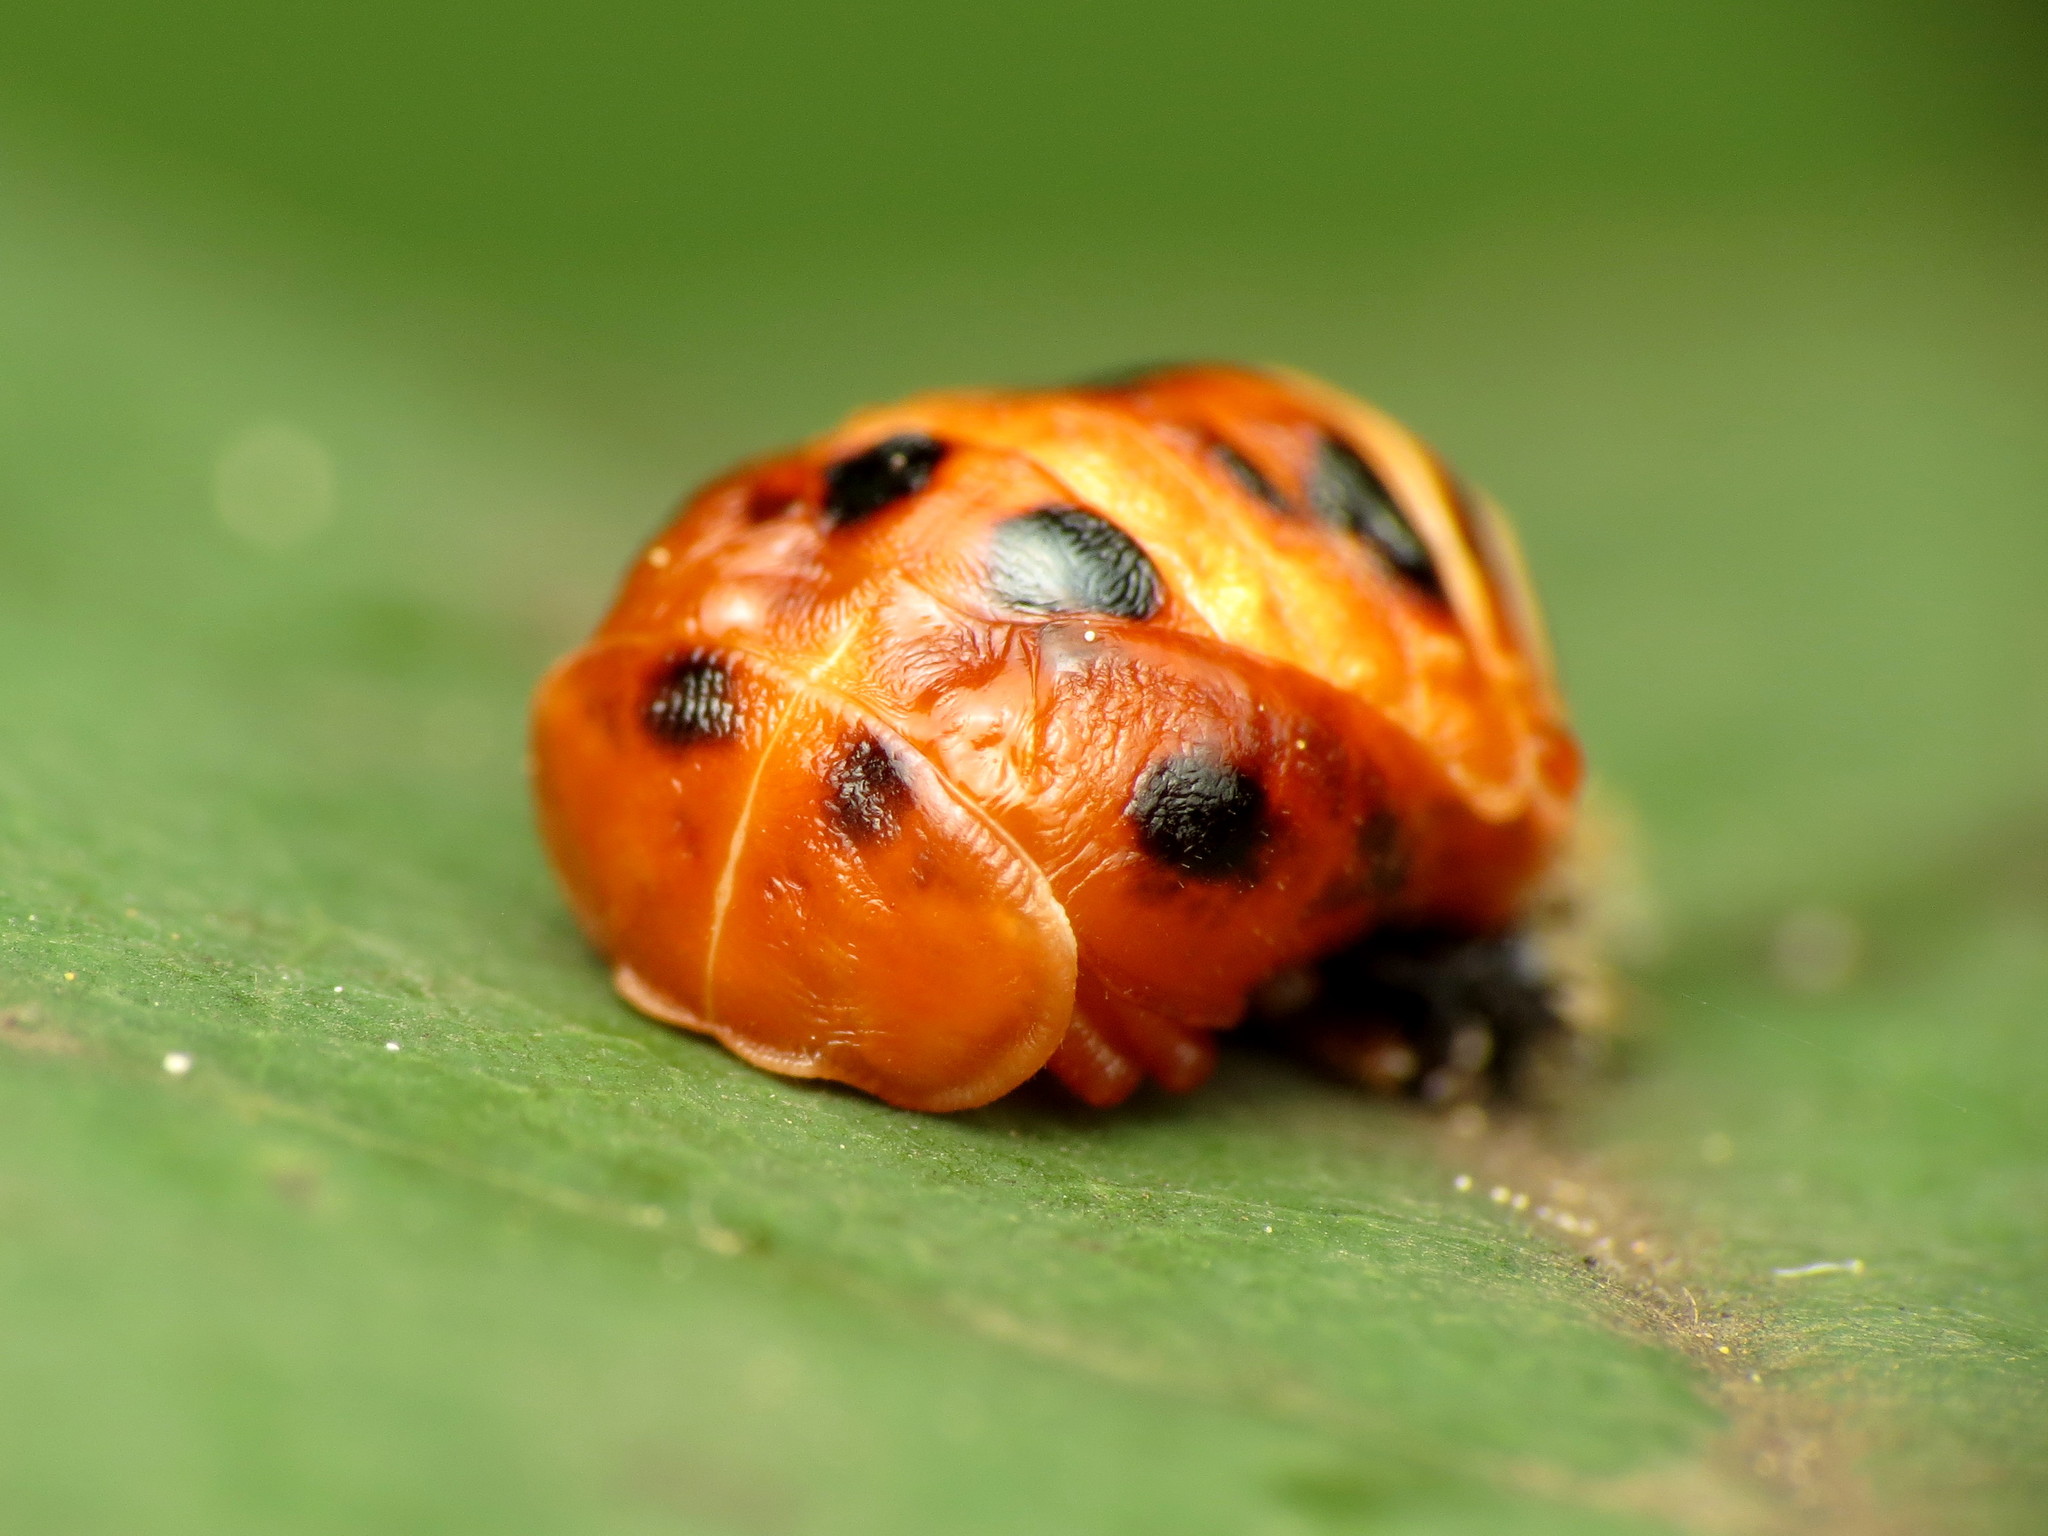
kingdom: Animalia
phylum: Arthropoda
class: Insecta
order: Coleoptera
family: Coccinellidae
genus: Harmonia
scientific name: Harmonia axyridis
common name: Harlequin ladybird
